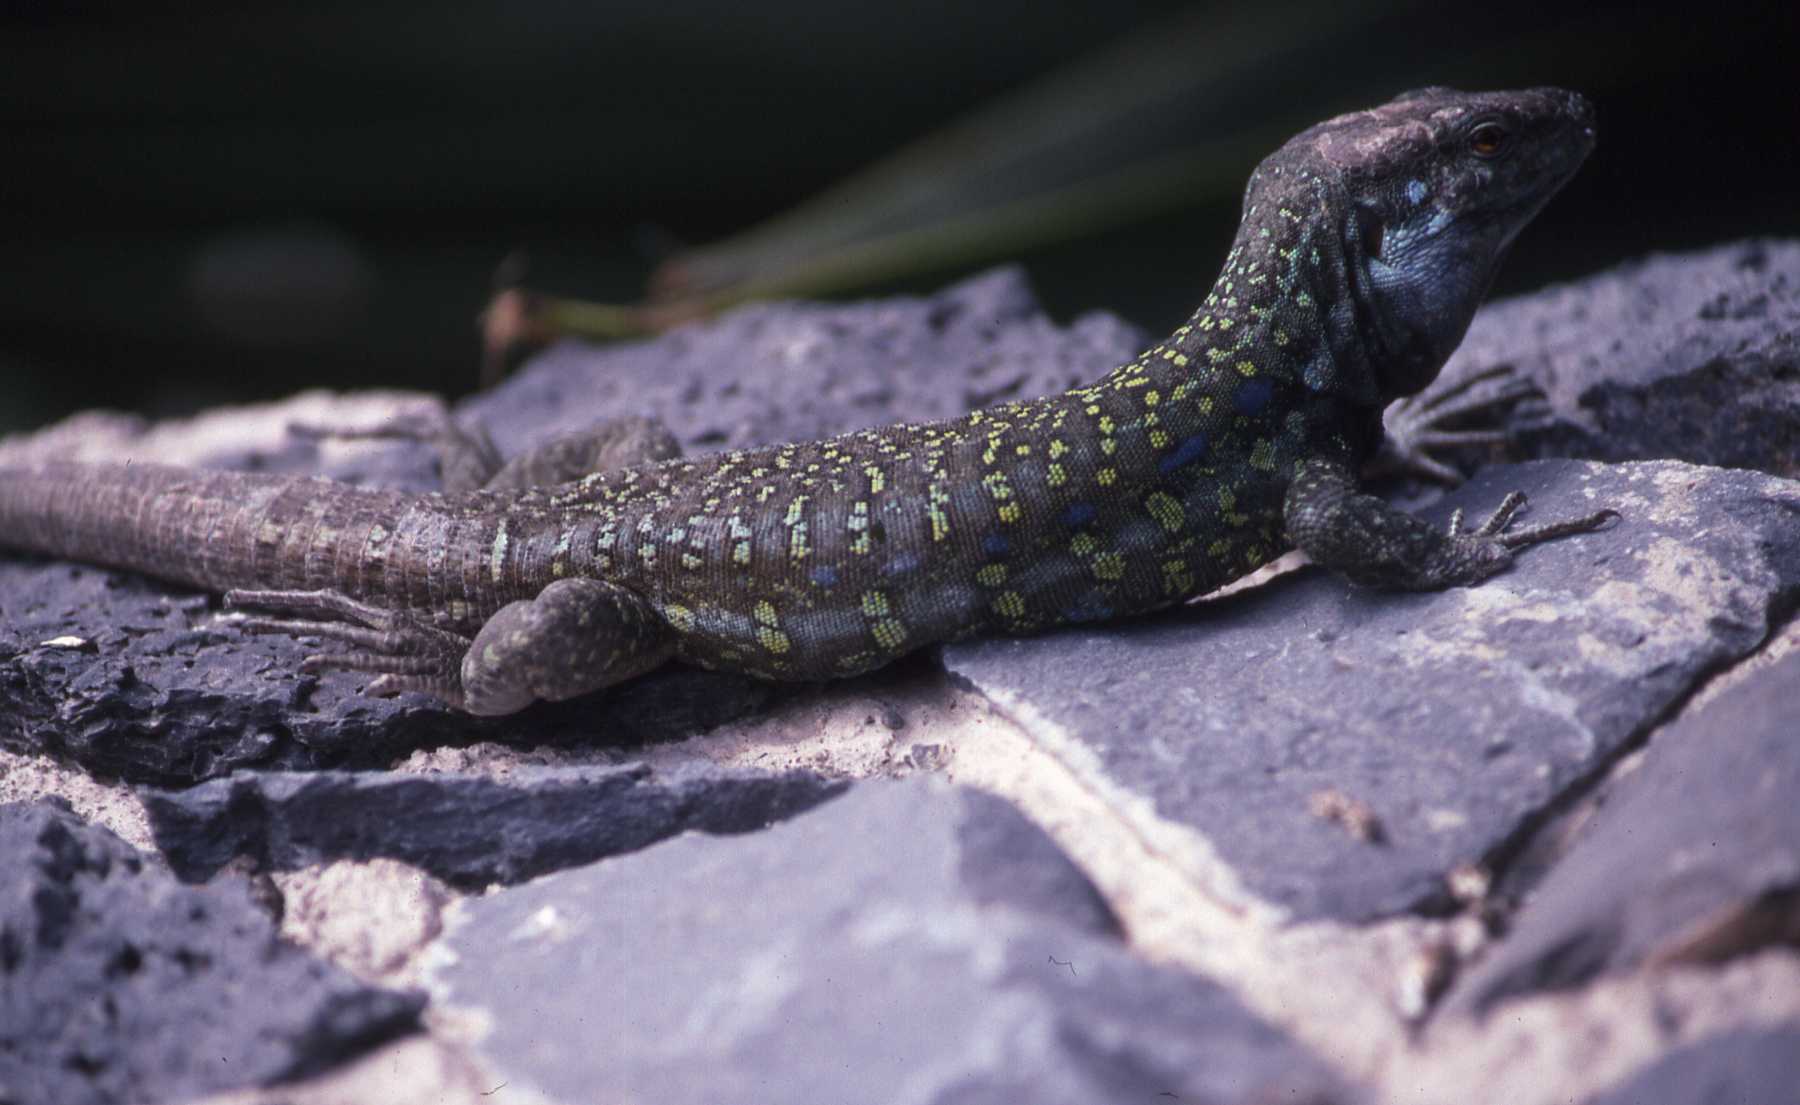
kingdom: Animalia
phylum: Chordata
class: Squamata
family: Lacertidae
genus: Gallotia
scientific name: Gallotia galloti
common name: Gallot's lizard
